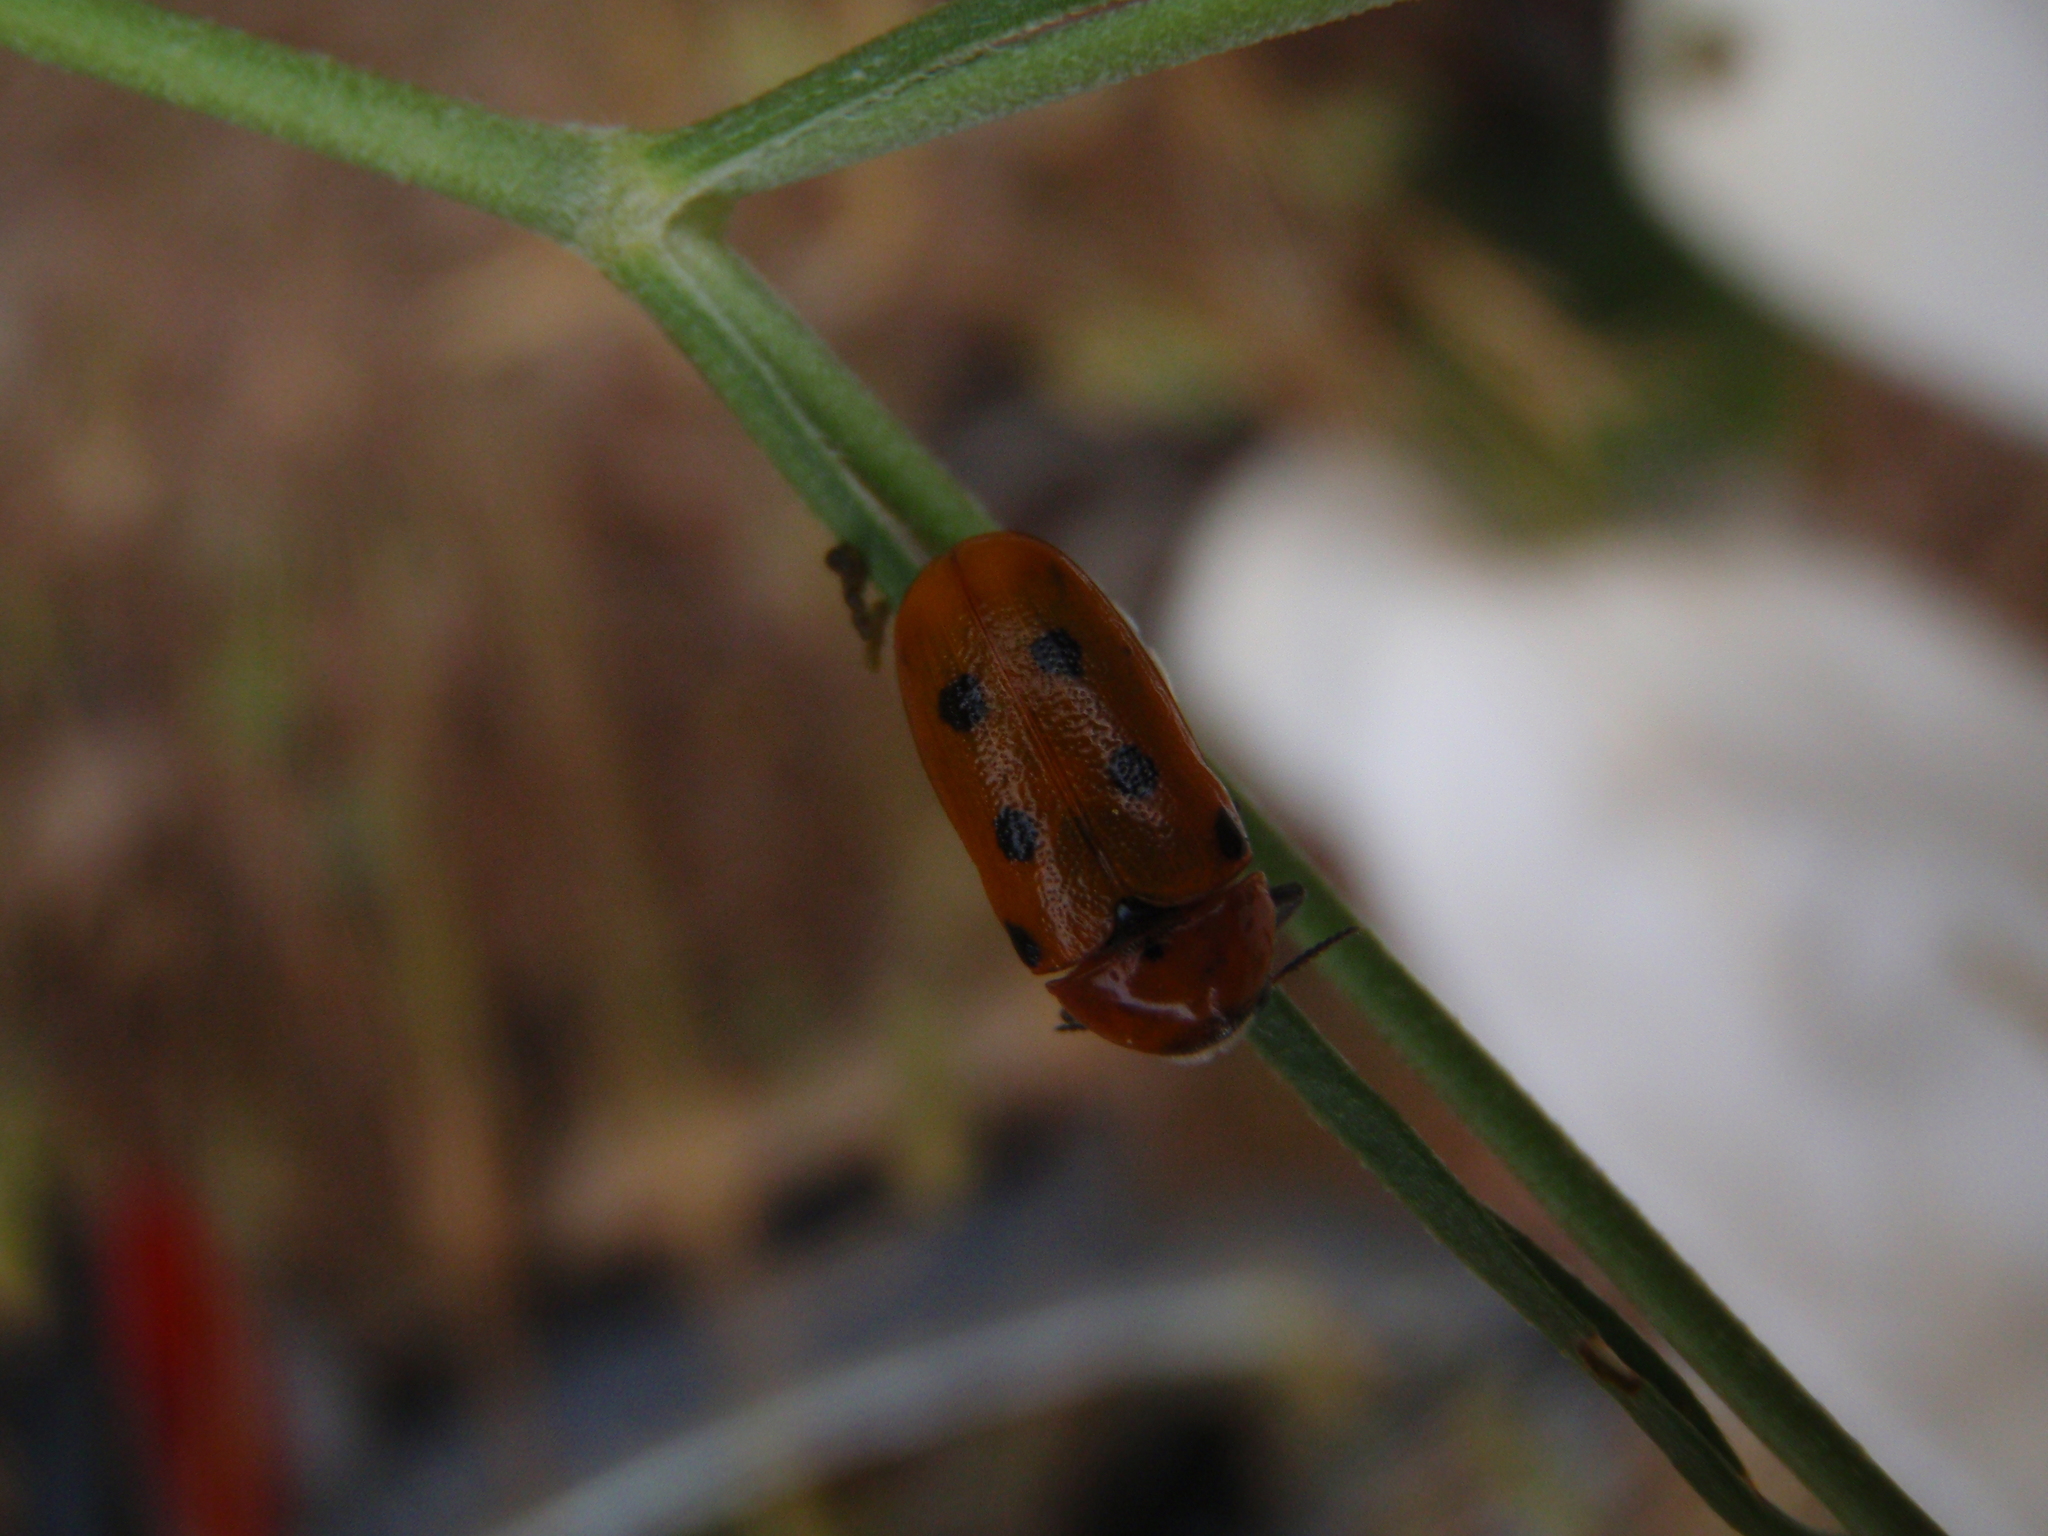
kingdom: Animalia
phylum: Arthropoda
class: Insecta
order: Coleoptera
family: Chrysomelidae
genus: Tituboea
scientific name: Tituboea biguttata
